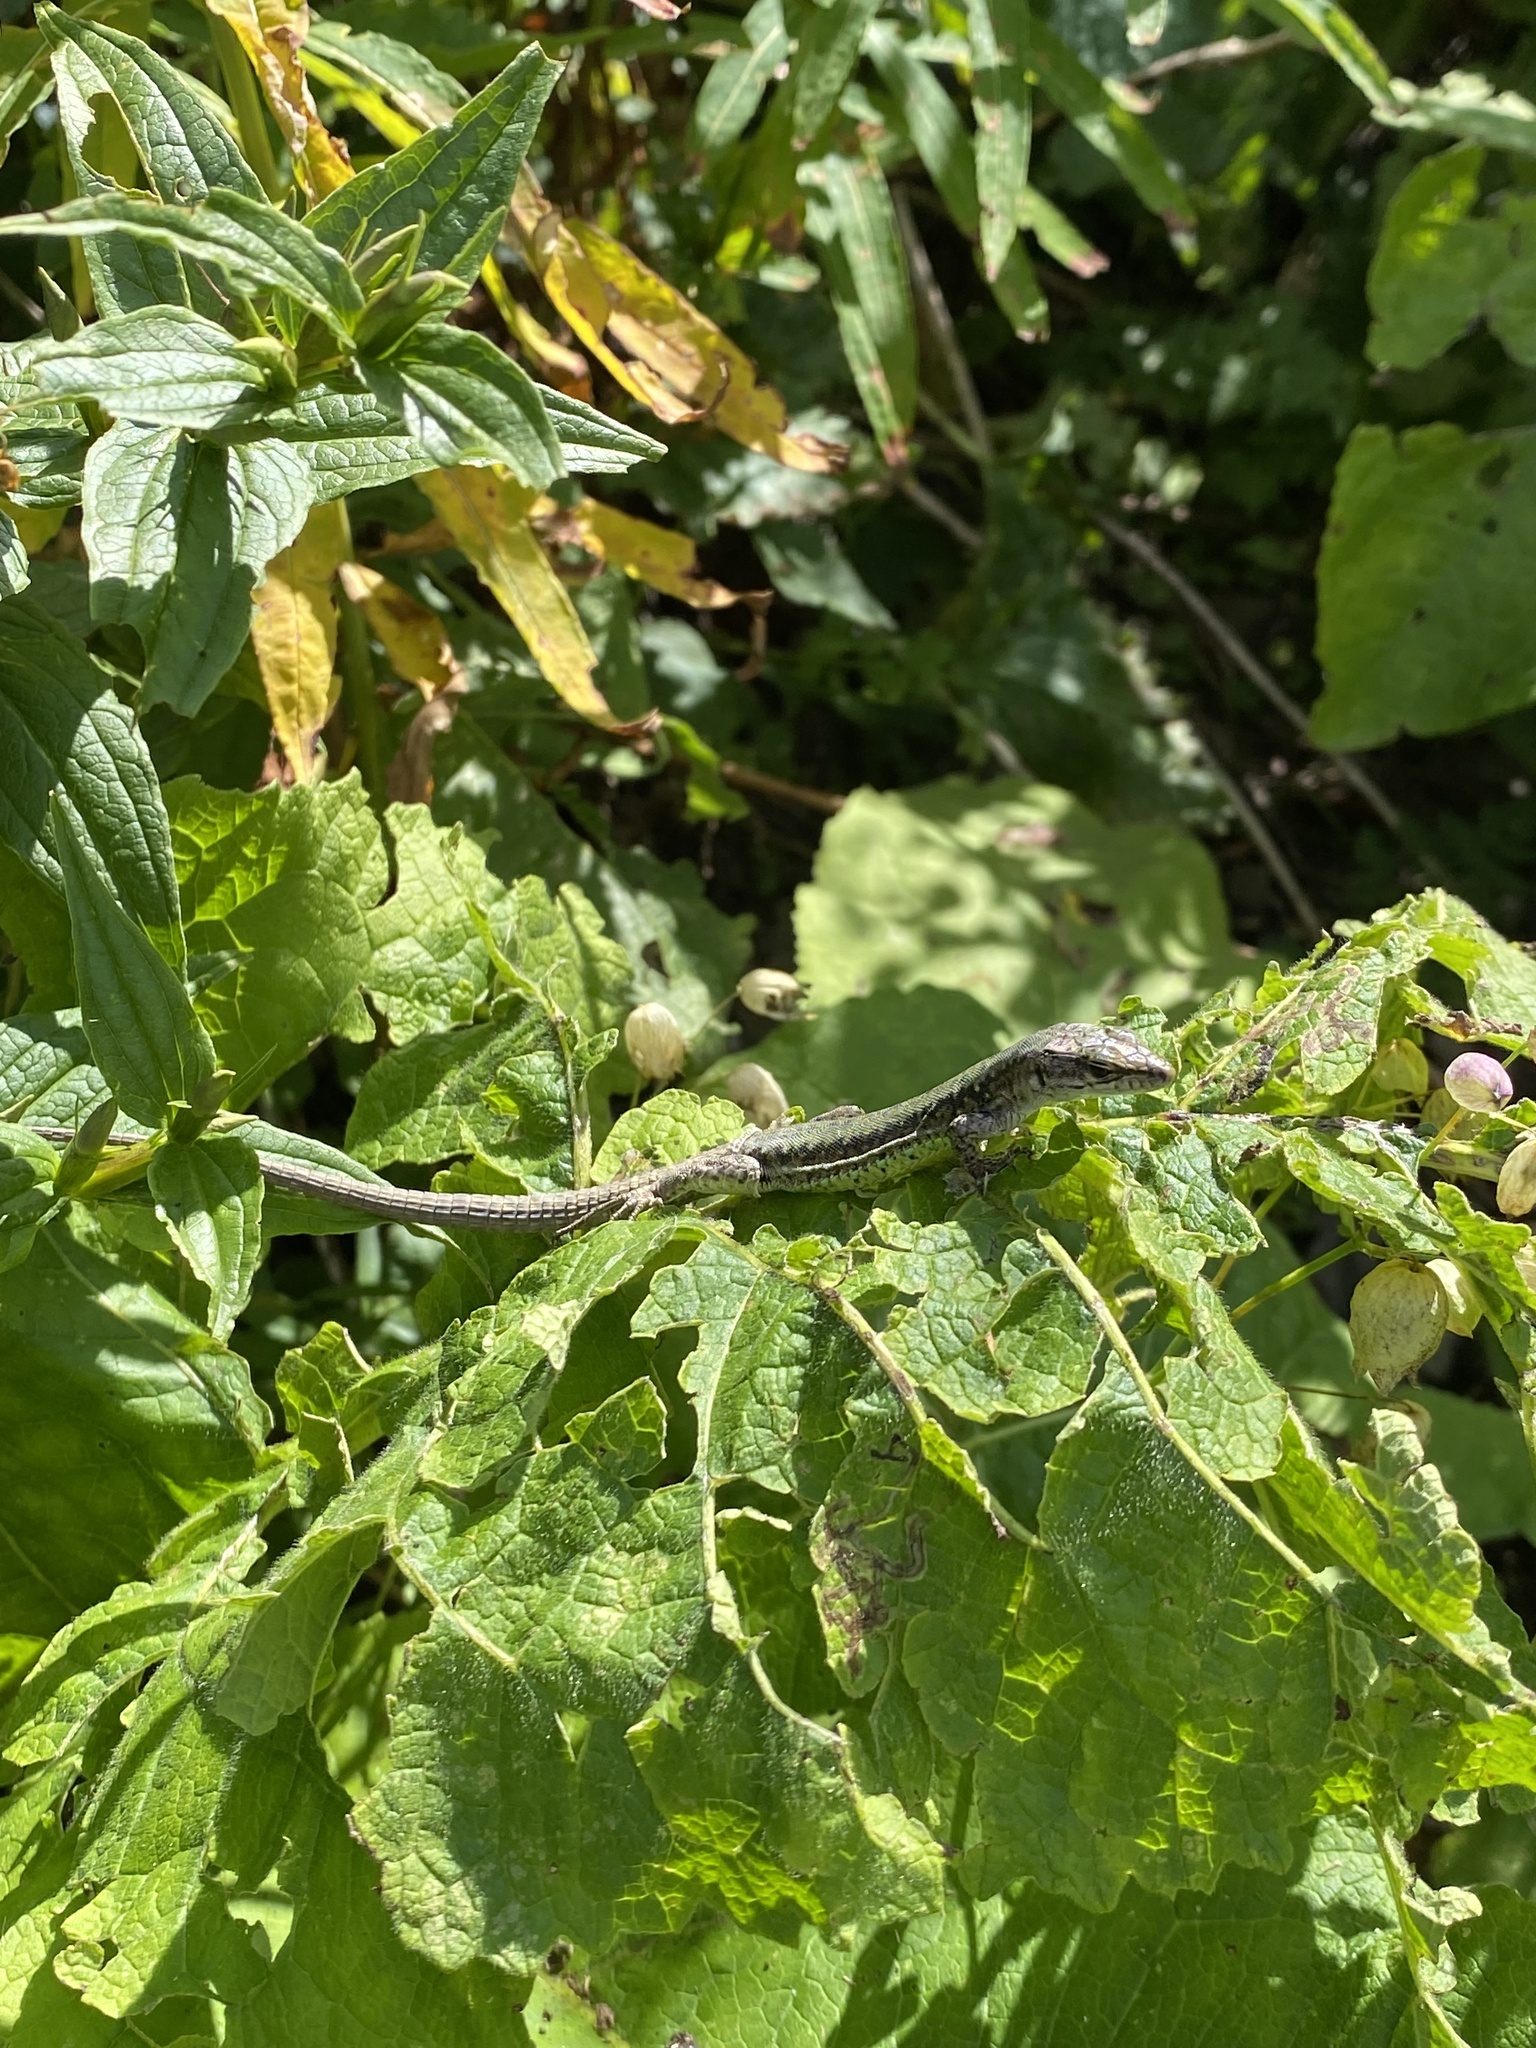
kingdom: Animalia
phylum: Chordata
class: Squamata
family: Lacertidae
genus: Darevskia
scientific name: Darevskia brauneri
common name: Brauner's rock lizard
